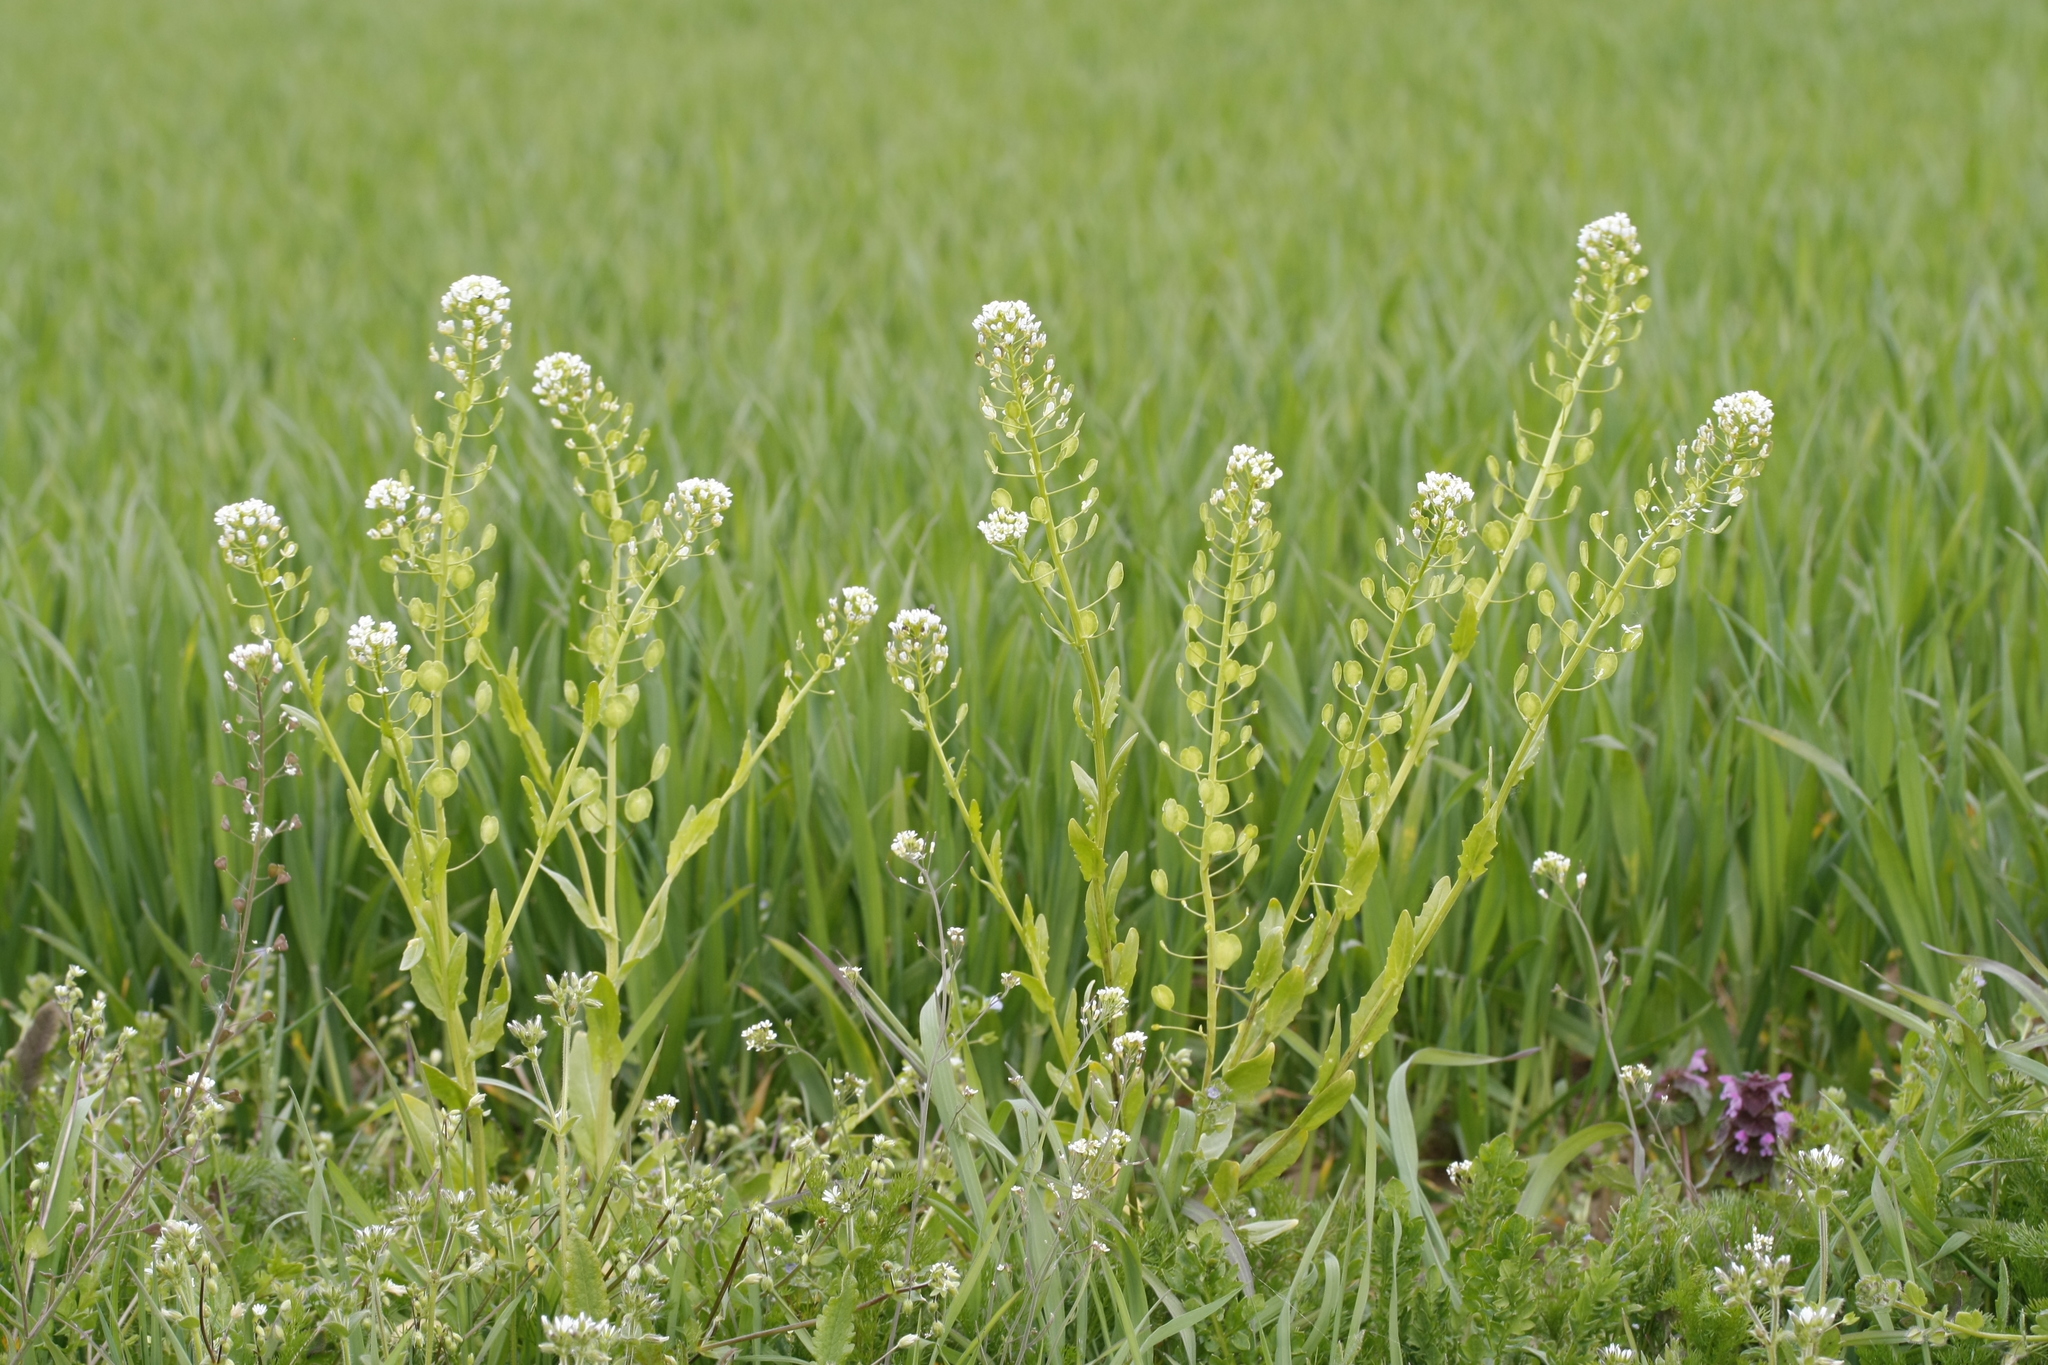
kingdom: Plantae
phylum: Tracheophyta
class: Magnoliopsida
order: Brassicales
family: Brassicaceae
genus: Thlaspi
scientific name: Thlaspi arvense
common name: Field pennycress
